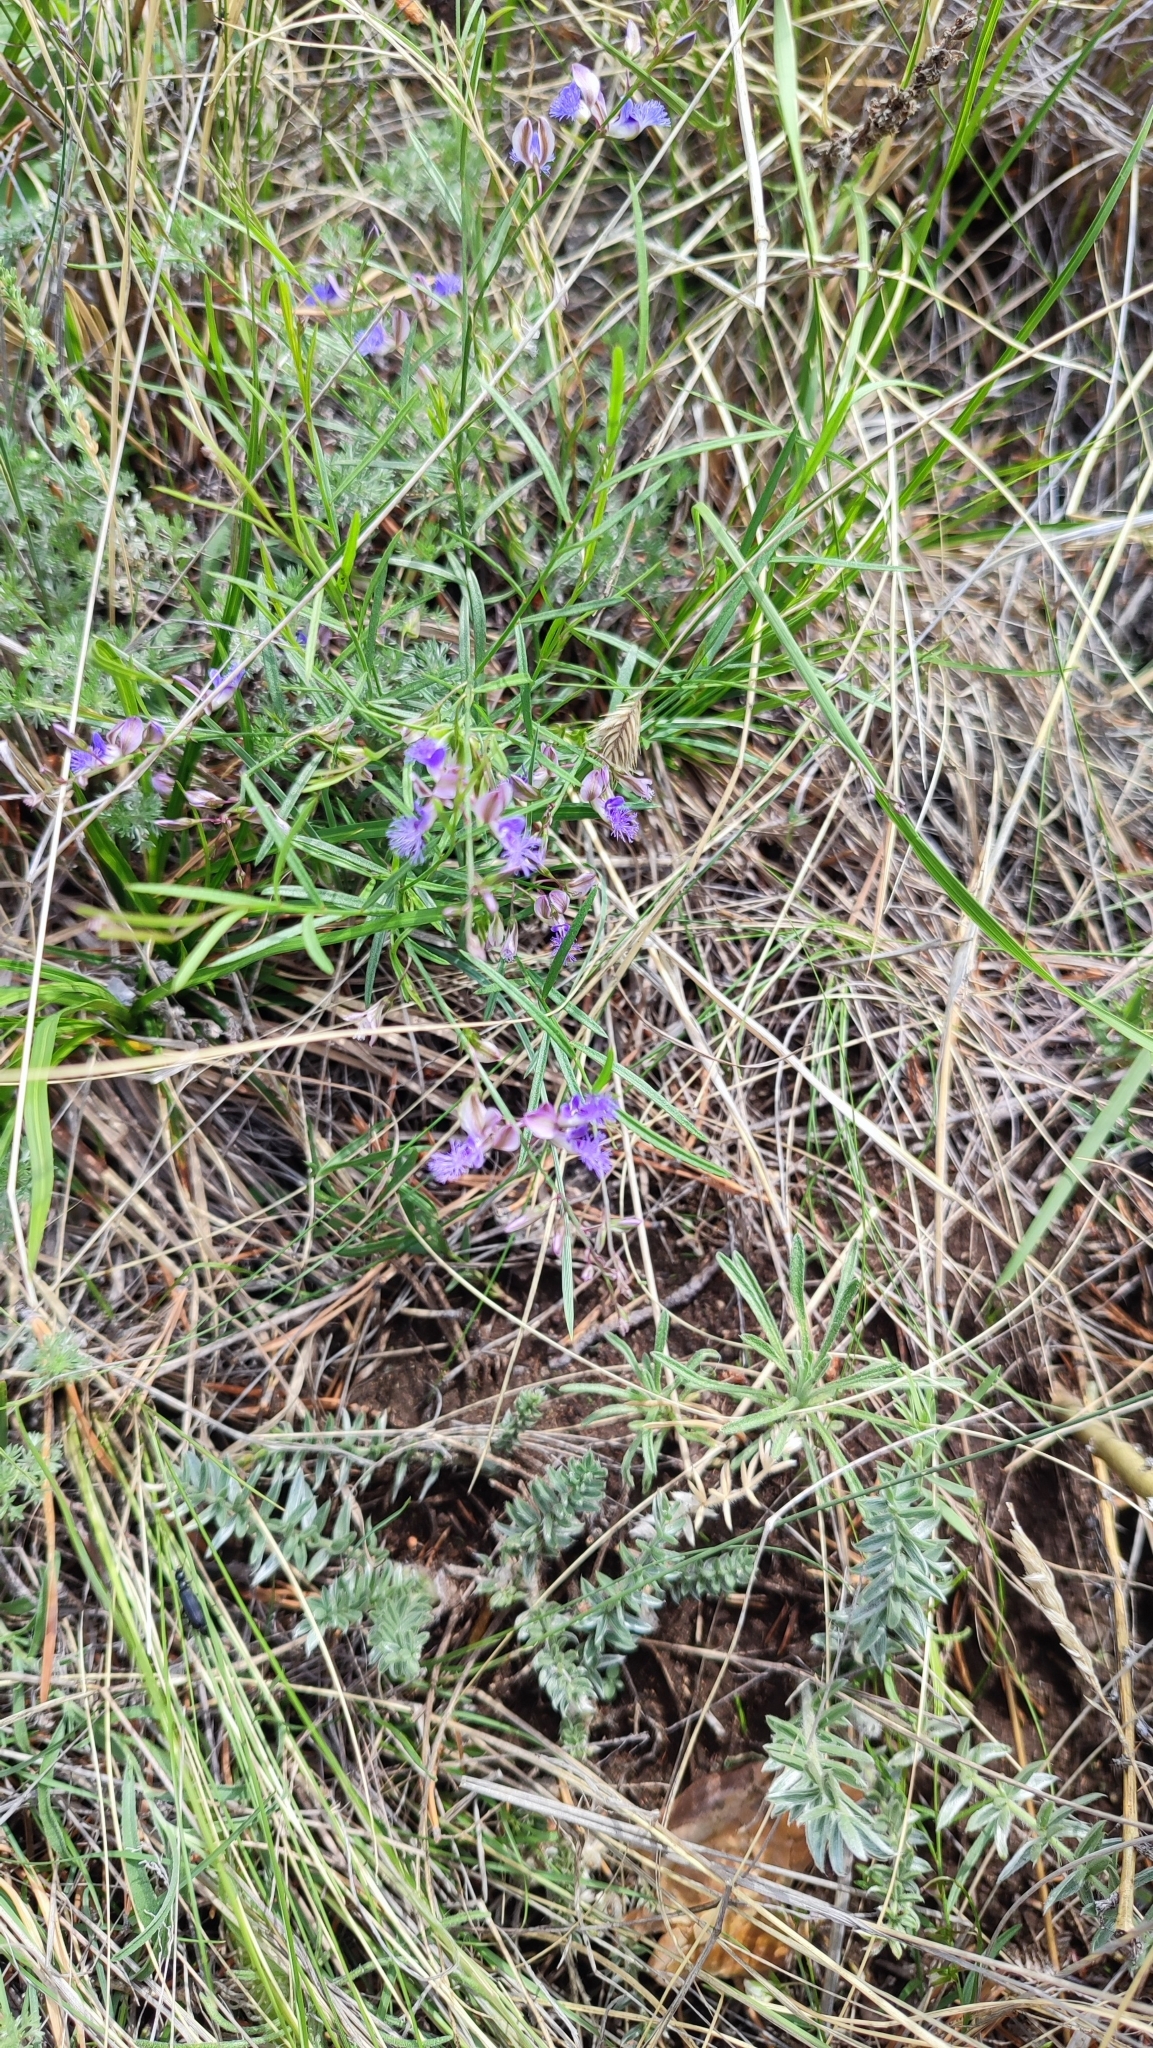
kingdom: Plantae
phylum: Tracheophyta
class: Magnoliopsida
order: Fabales
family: Polygalaceae
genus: Polygala
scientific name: Polygala tenuifolia
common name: Chinese senega-root
